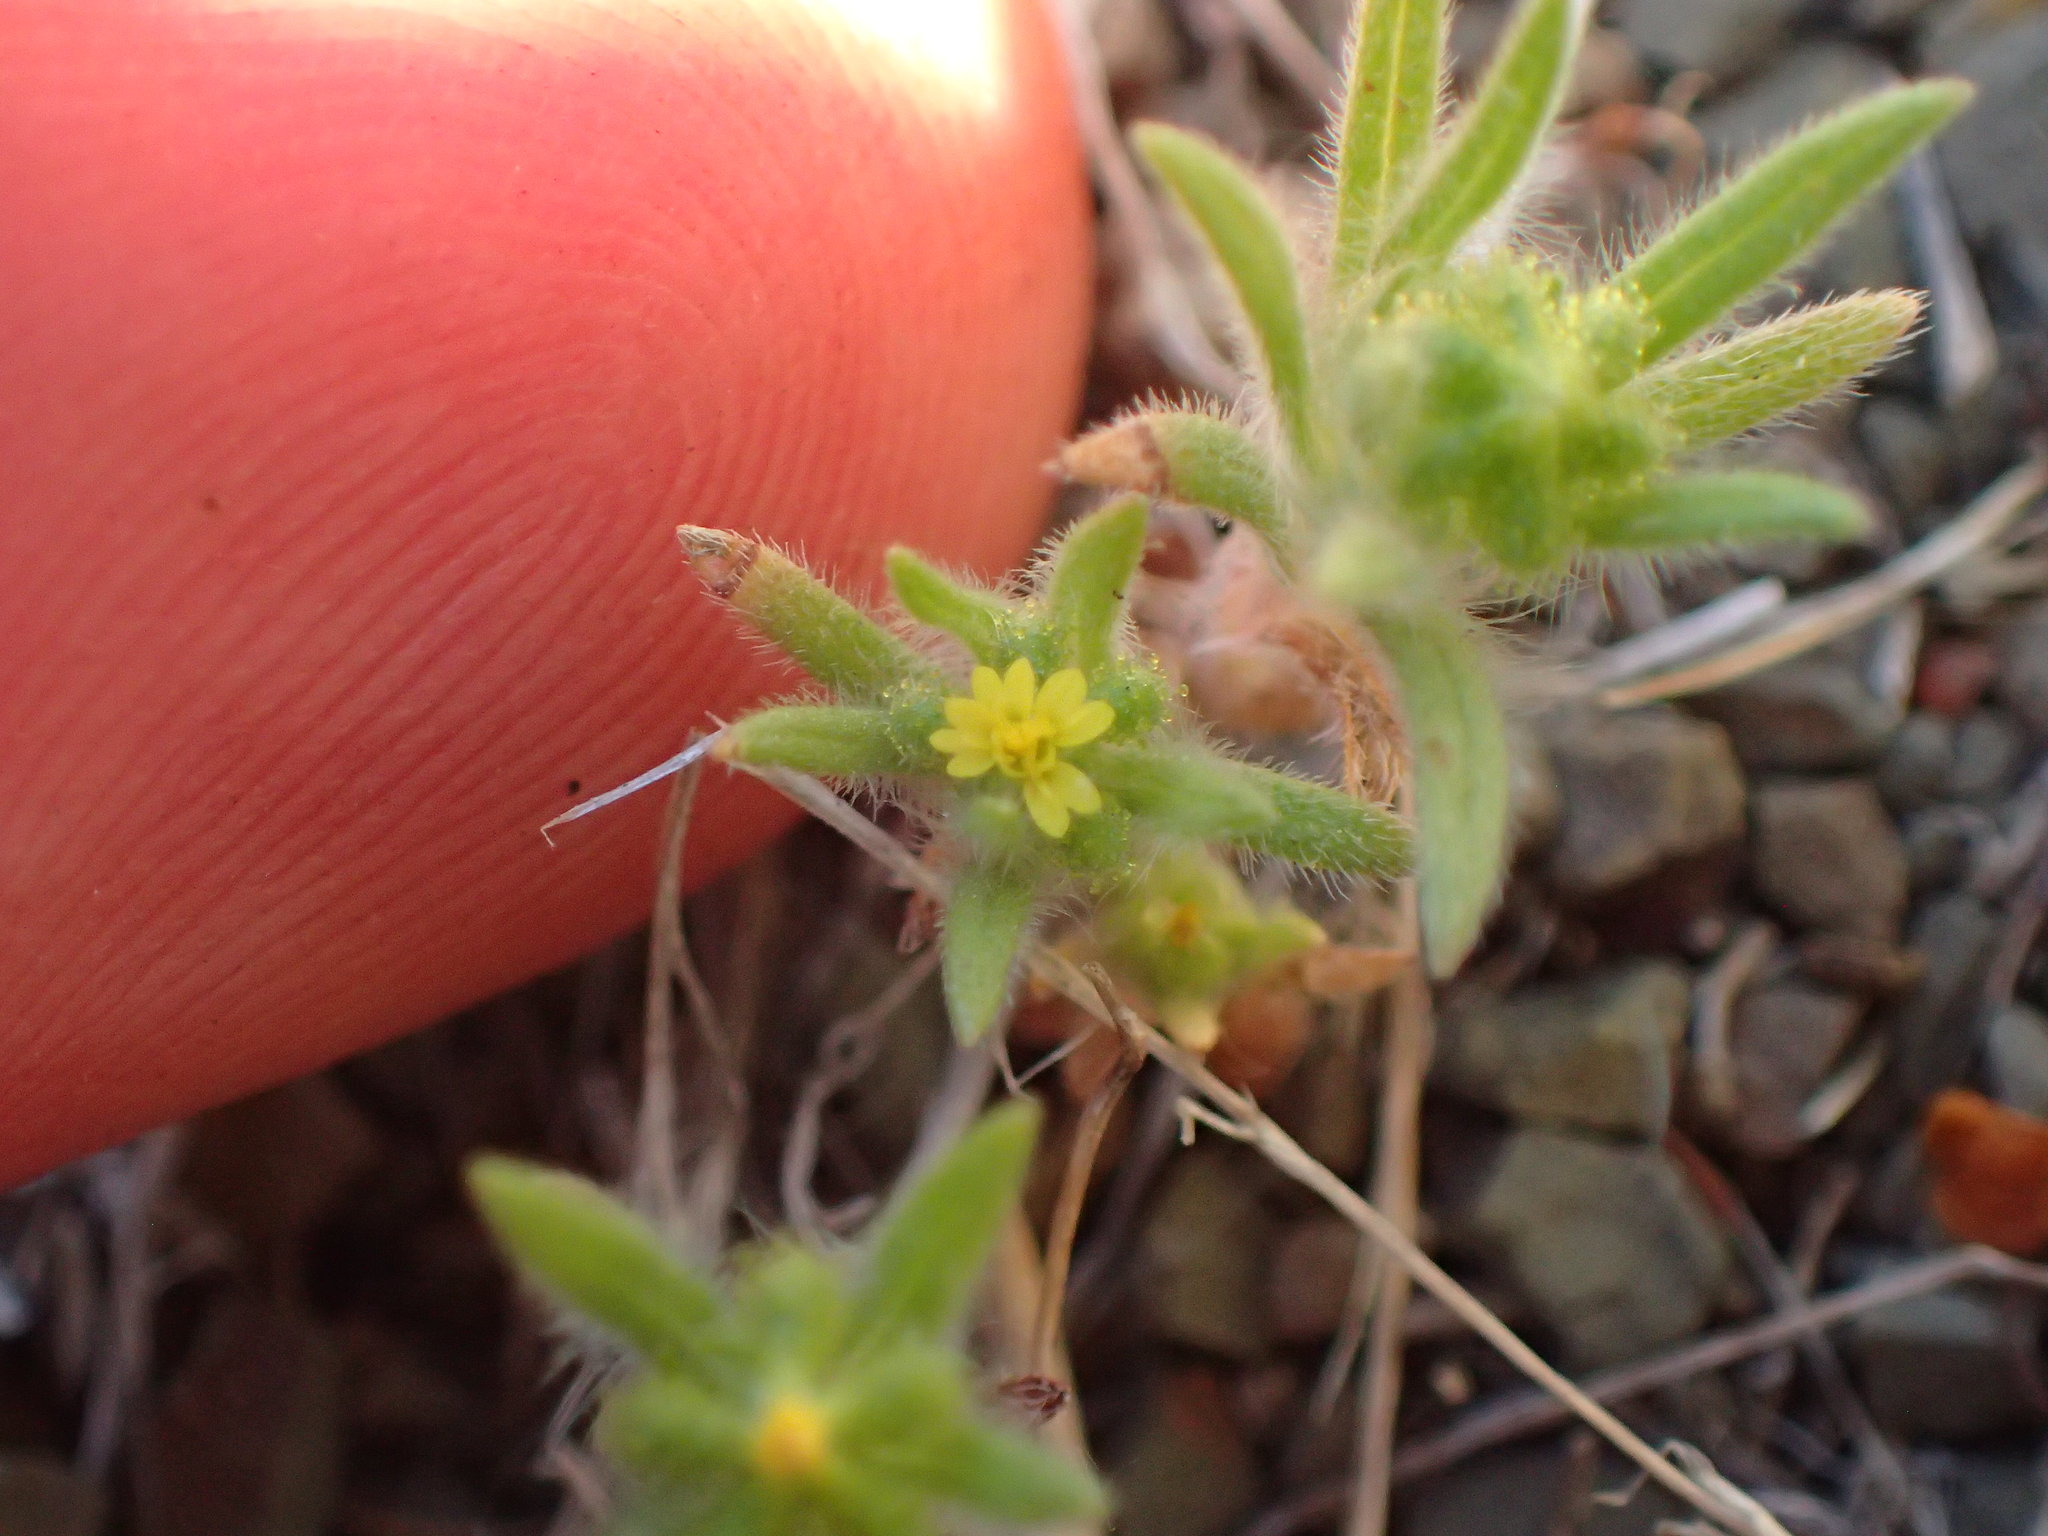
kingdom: Plantae
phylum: Tracheophyta
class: Magnoliopsida
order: Asterales
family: Asteraceae
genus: Madia
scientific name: Madia exigua
